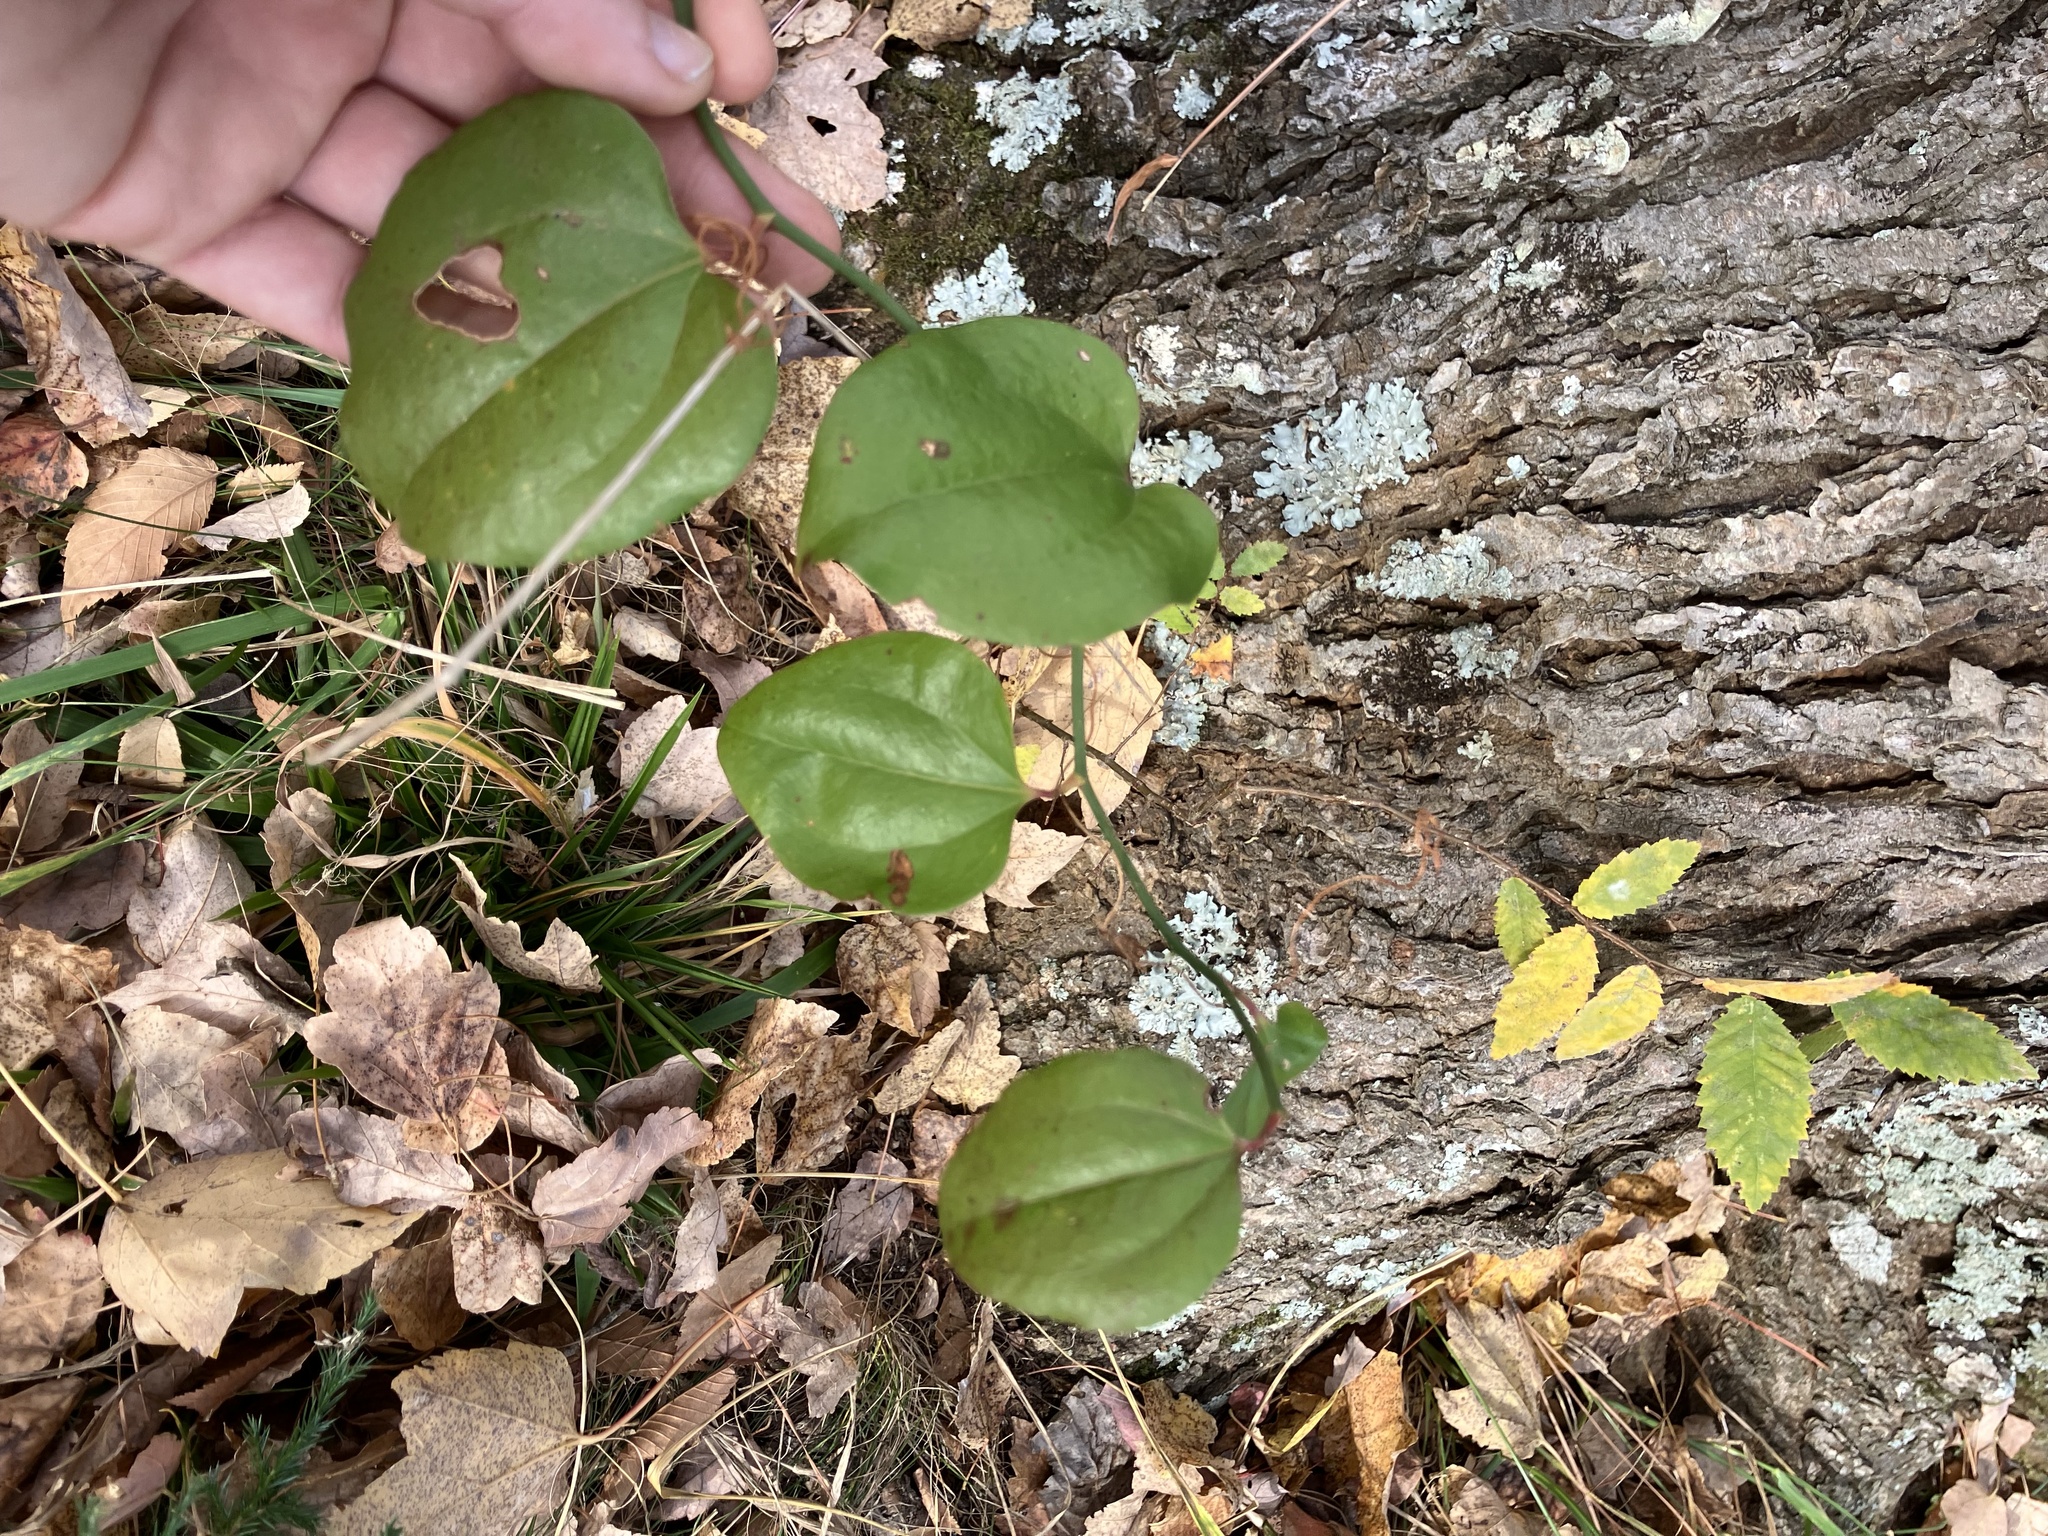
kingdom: Plantae
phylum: Tracheophyta
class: Liliopsida
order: Liliales
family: Smilacaceae
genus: Smilax
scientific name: Smilax rotundifolia
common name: Bullbriar
